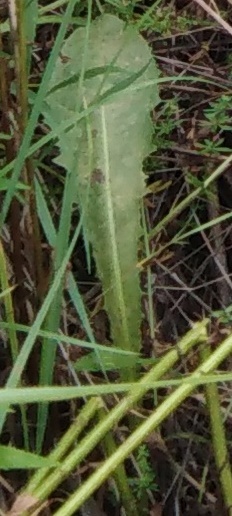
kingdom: Plantae
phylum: Tracheophyta
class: Magnoliopsida
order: Asterales
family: Asteraceae
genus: Taraxacum
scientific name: Taraxacum officinale
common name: Common dandelion
